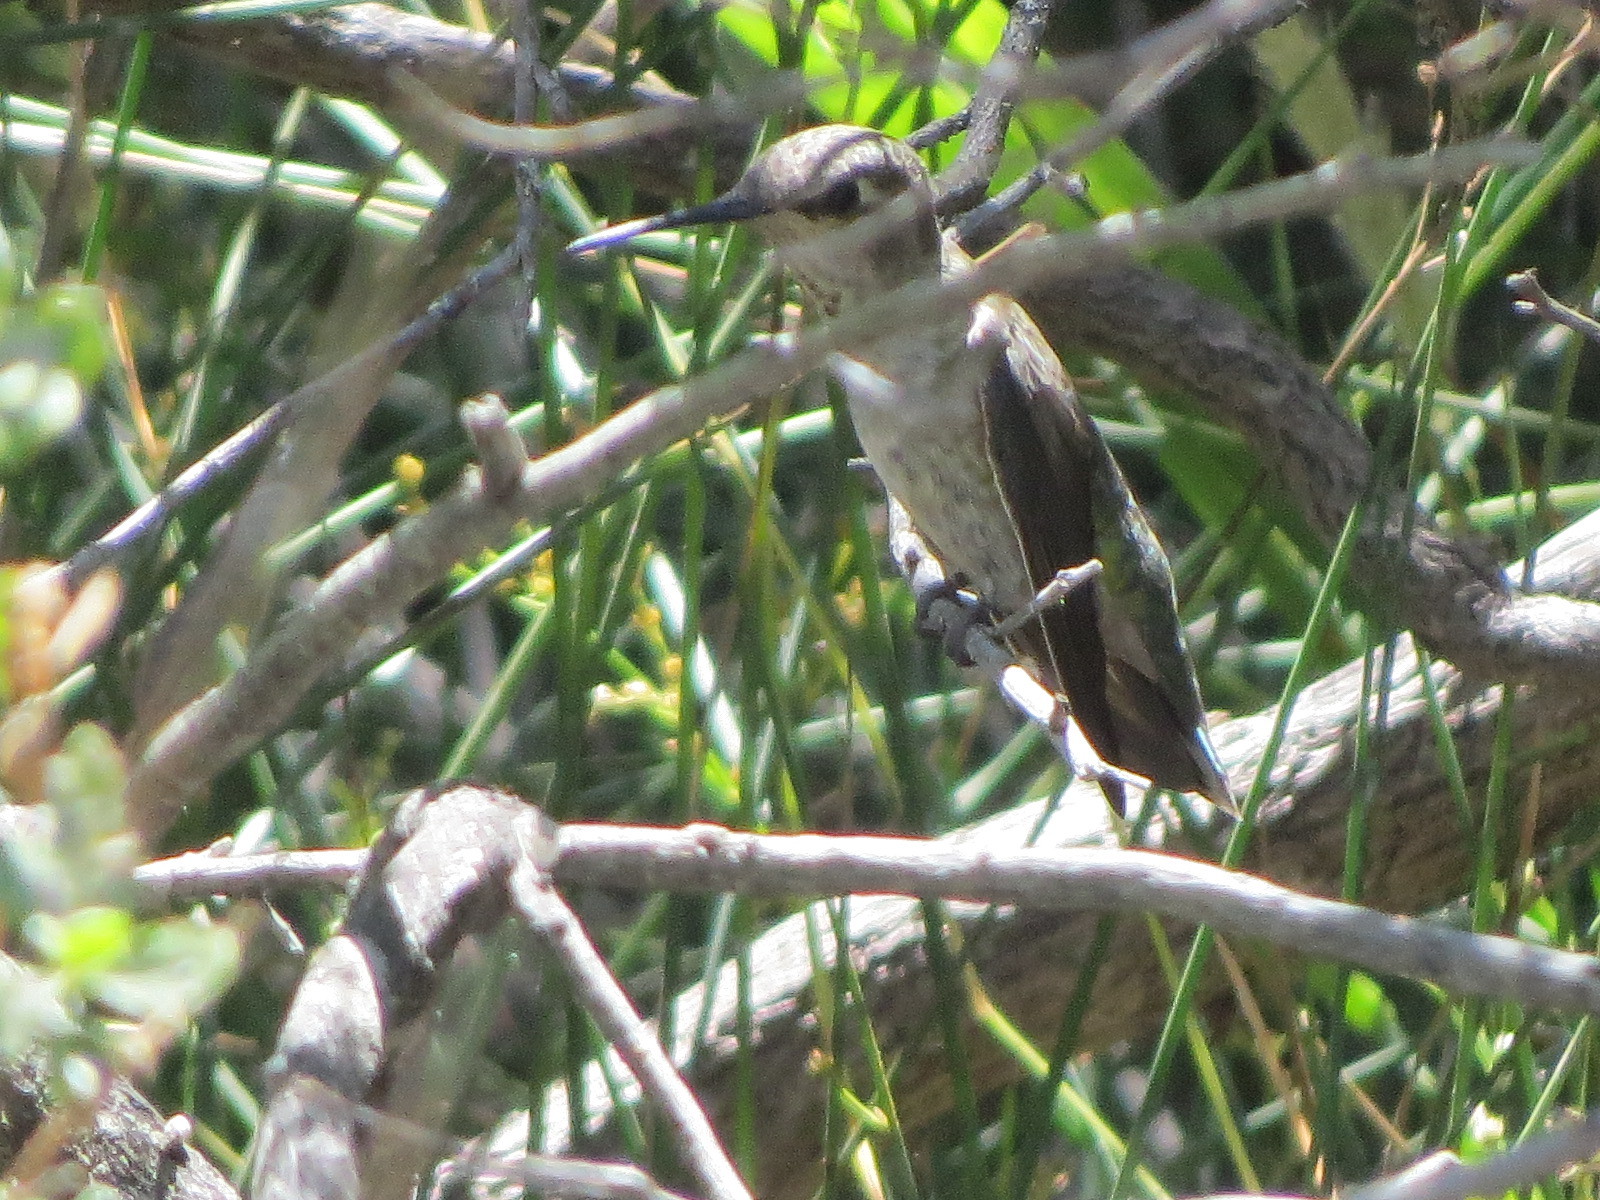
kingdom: Animalia
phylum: Chordata
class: Aves
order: Apodiformes
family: Trochilidae
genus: Calypte
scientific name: Calypte anna
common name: Anna's hummingbird
